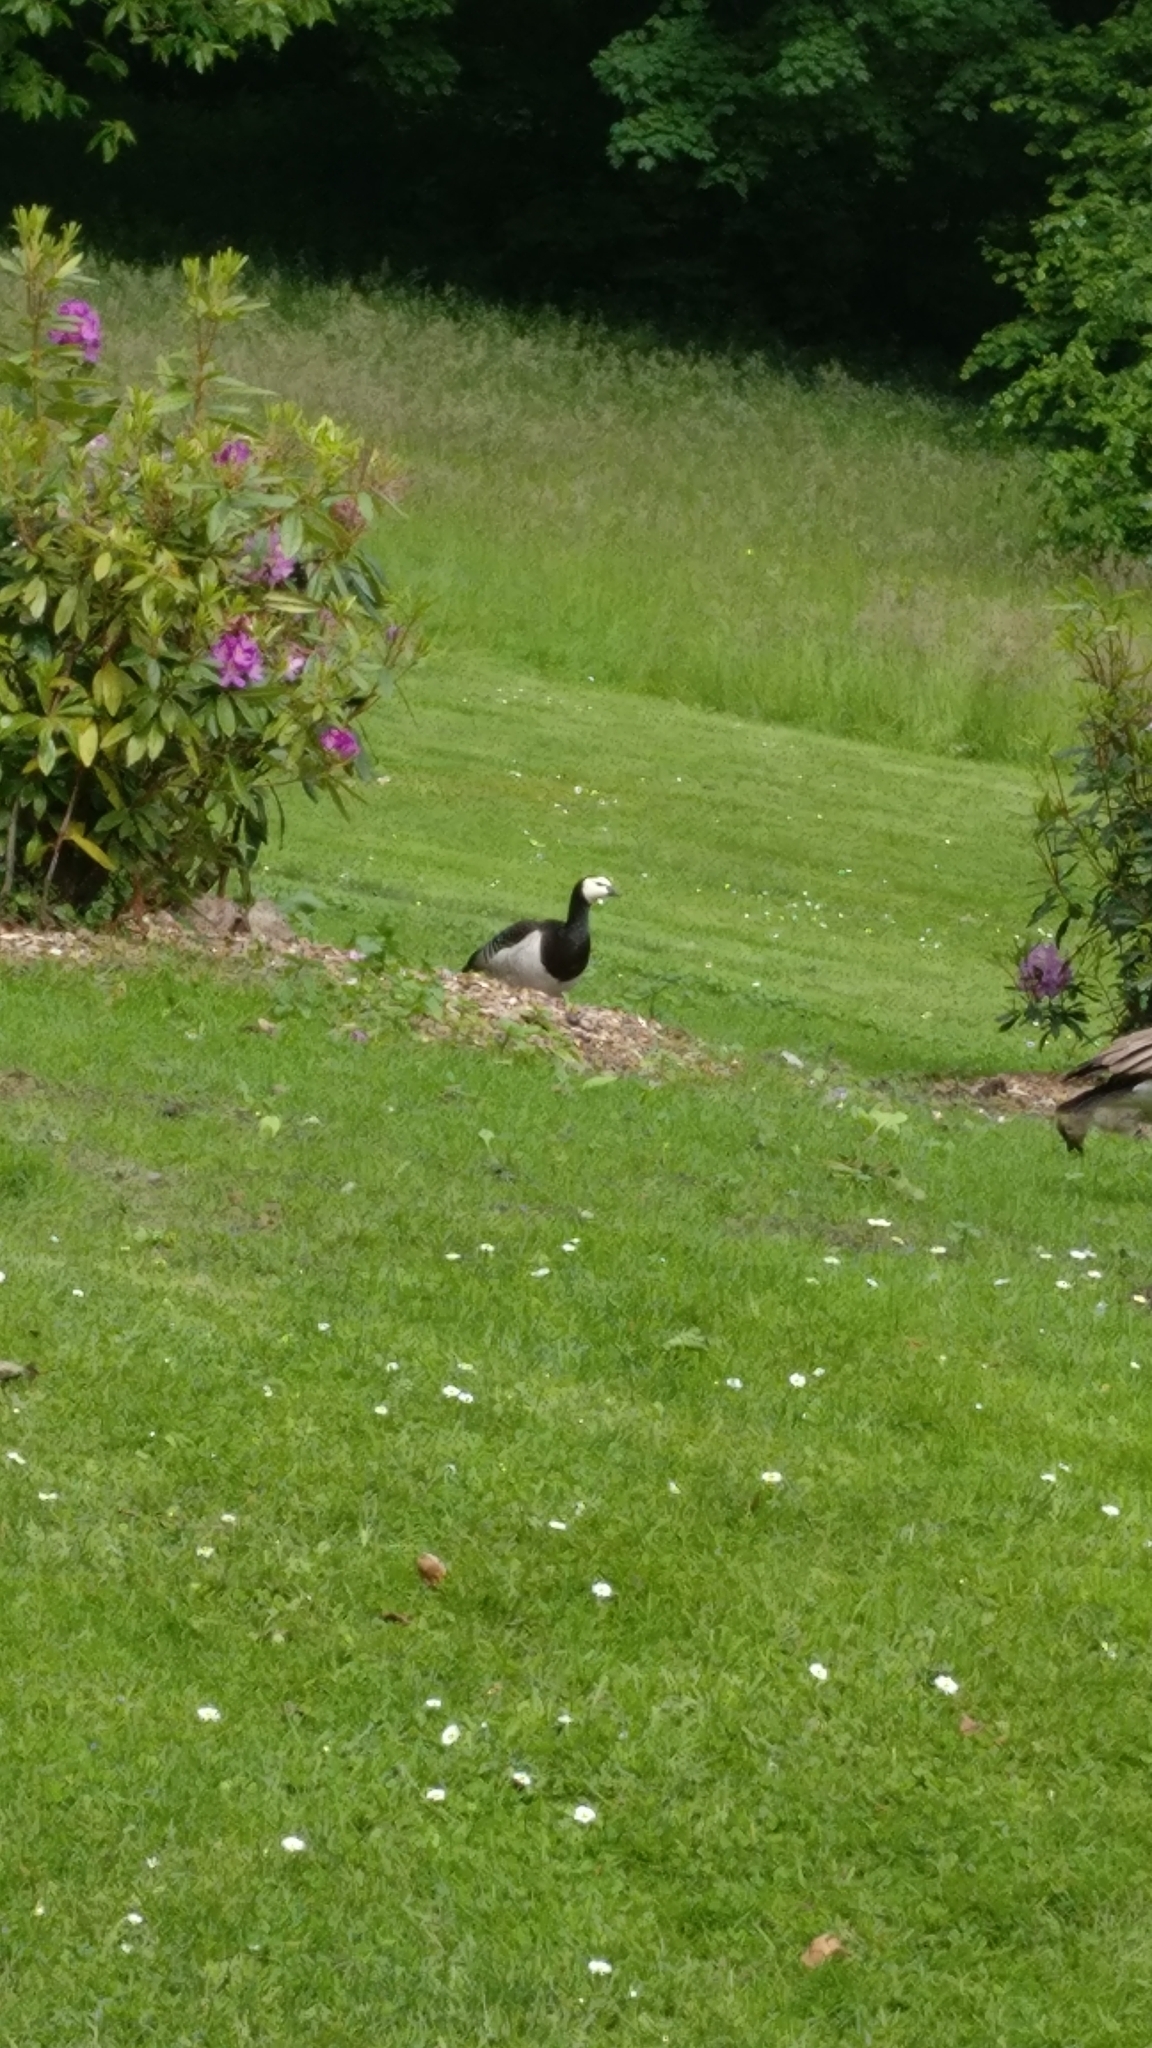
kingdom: Animalia
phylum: Chordata
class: Aves
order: Anseriformes
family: Anatidae
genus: Branta
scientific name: Branta leucopsis
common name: Barnacle goose
